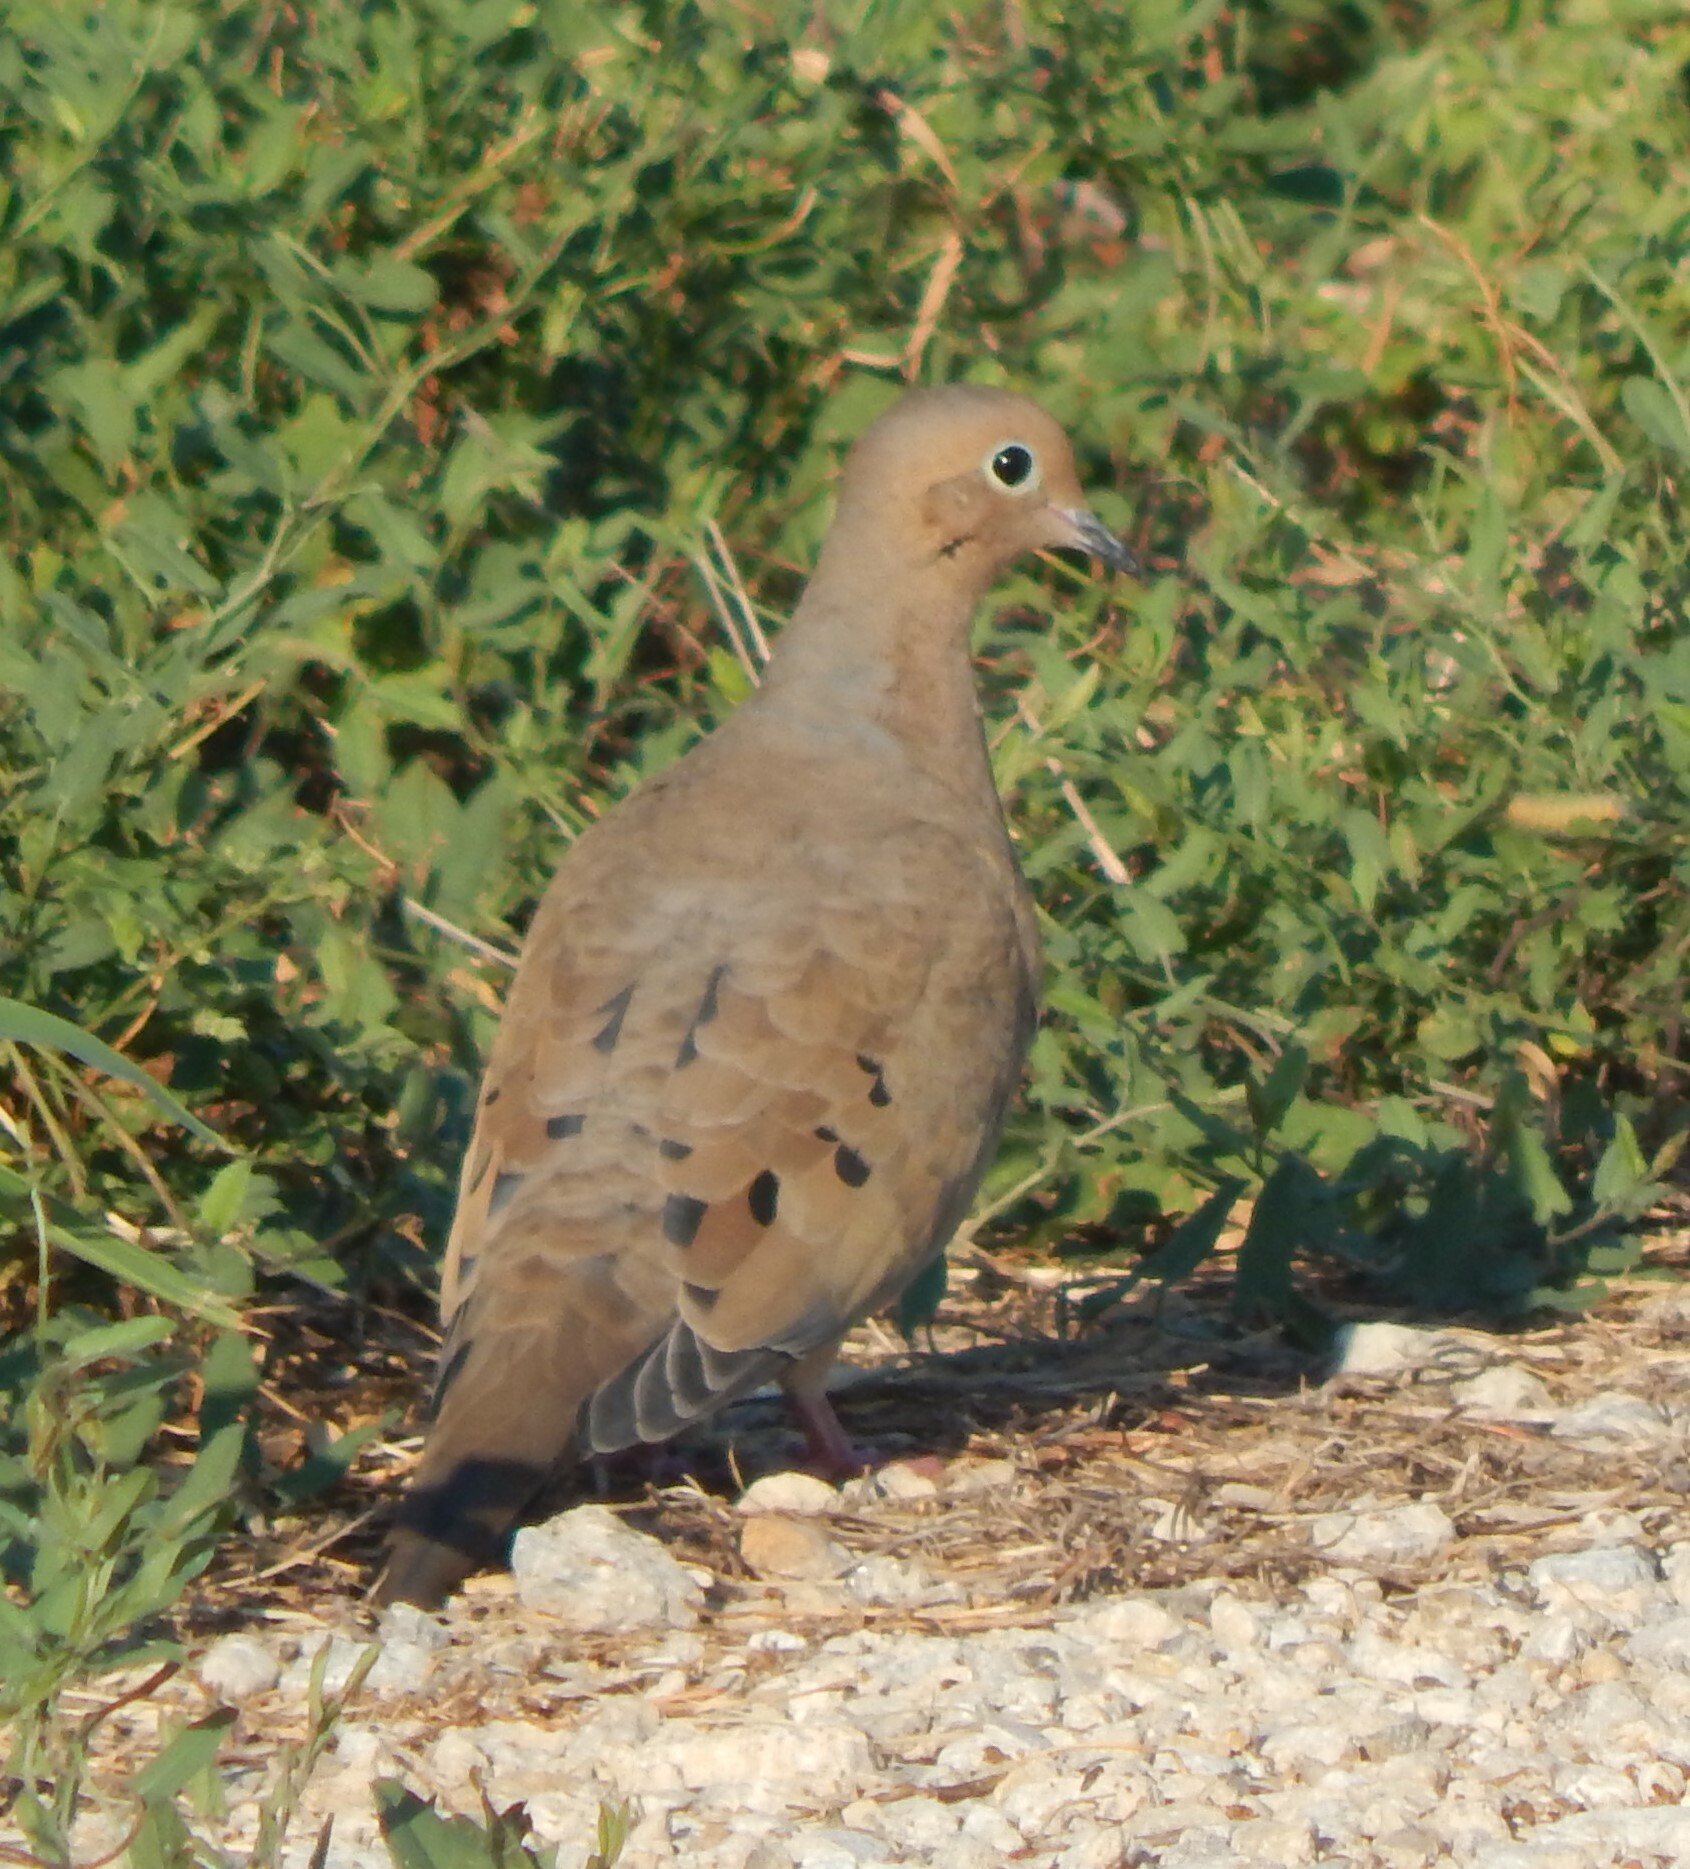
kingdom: Animalia
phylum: Chordata
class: Aves
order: Columbiformes
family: Columbidae
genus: Zenaida
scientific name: Zenaida macroura
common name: Mourning dove
